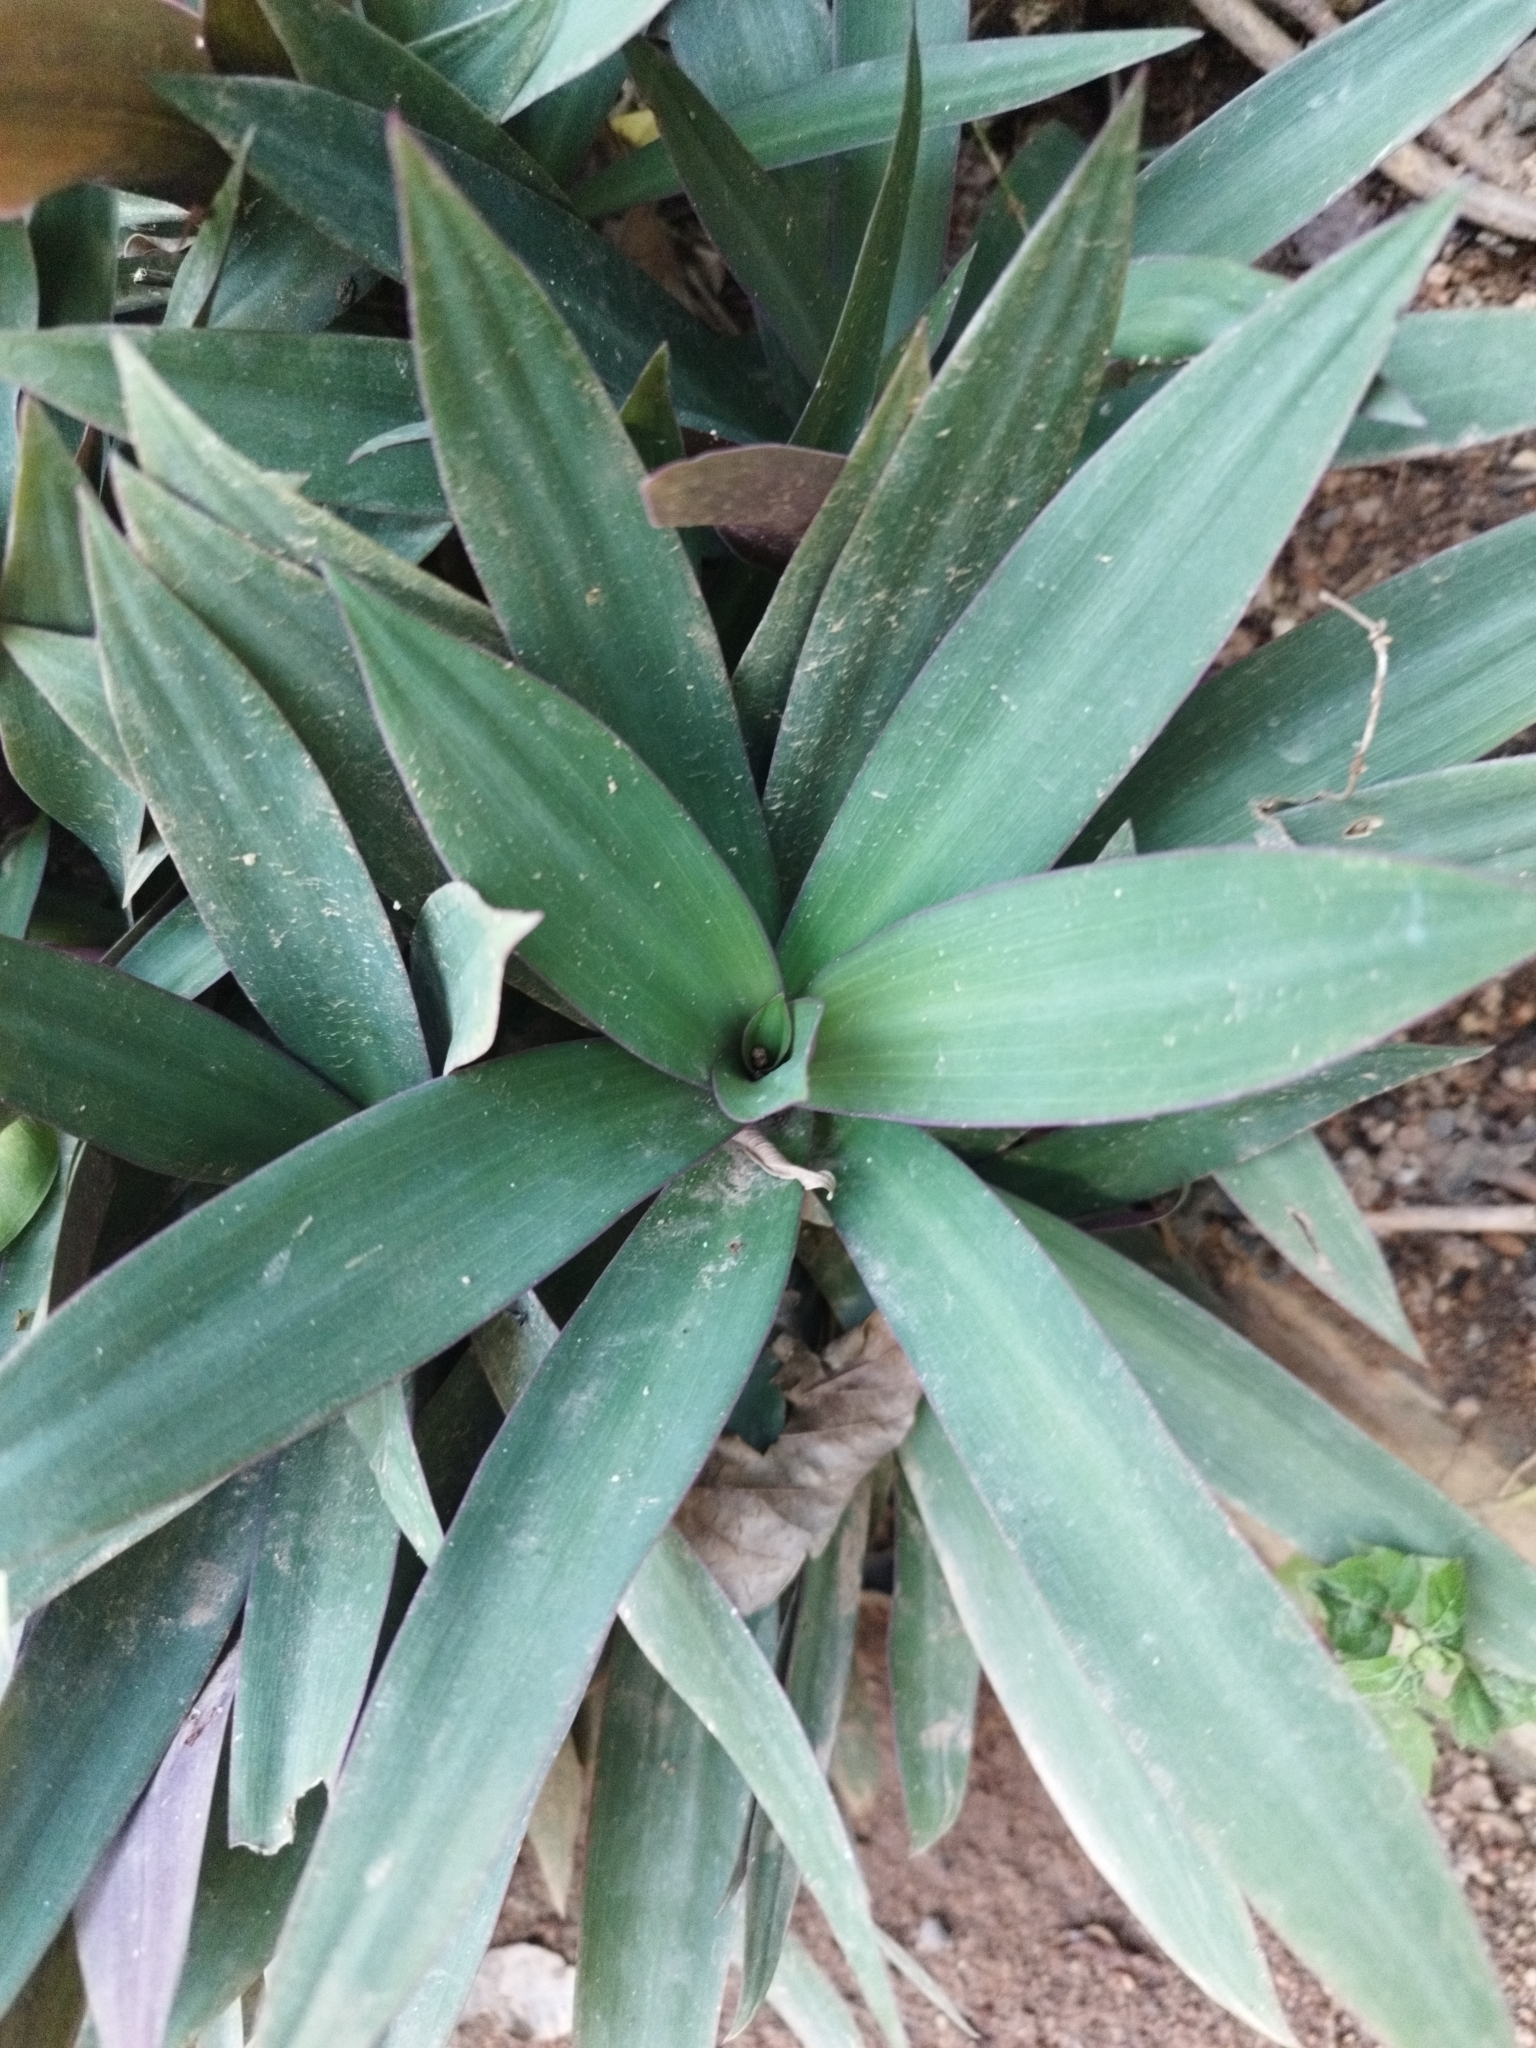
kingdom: Plantae
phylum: Tracheophyta
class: Liliopsida
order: Commelinales
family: Commelinaceae
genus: Tradescantia
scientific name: Tradescantia spathacea
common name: Boatlily
